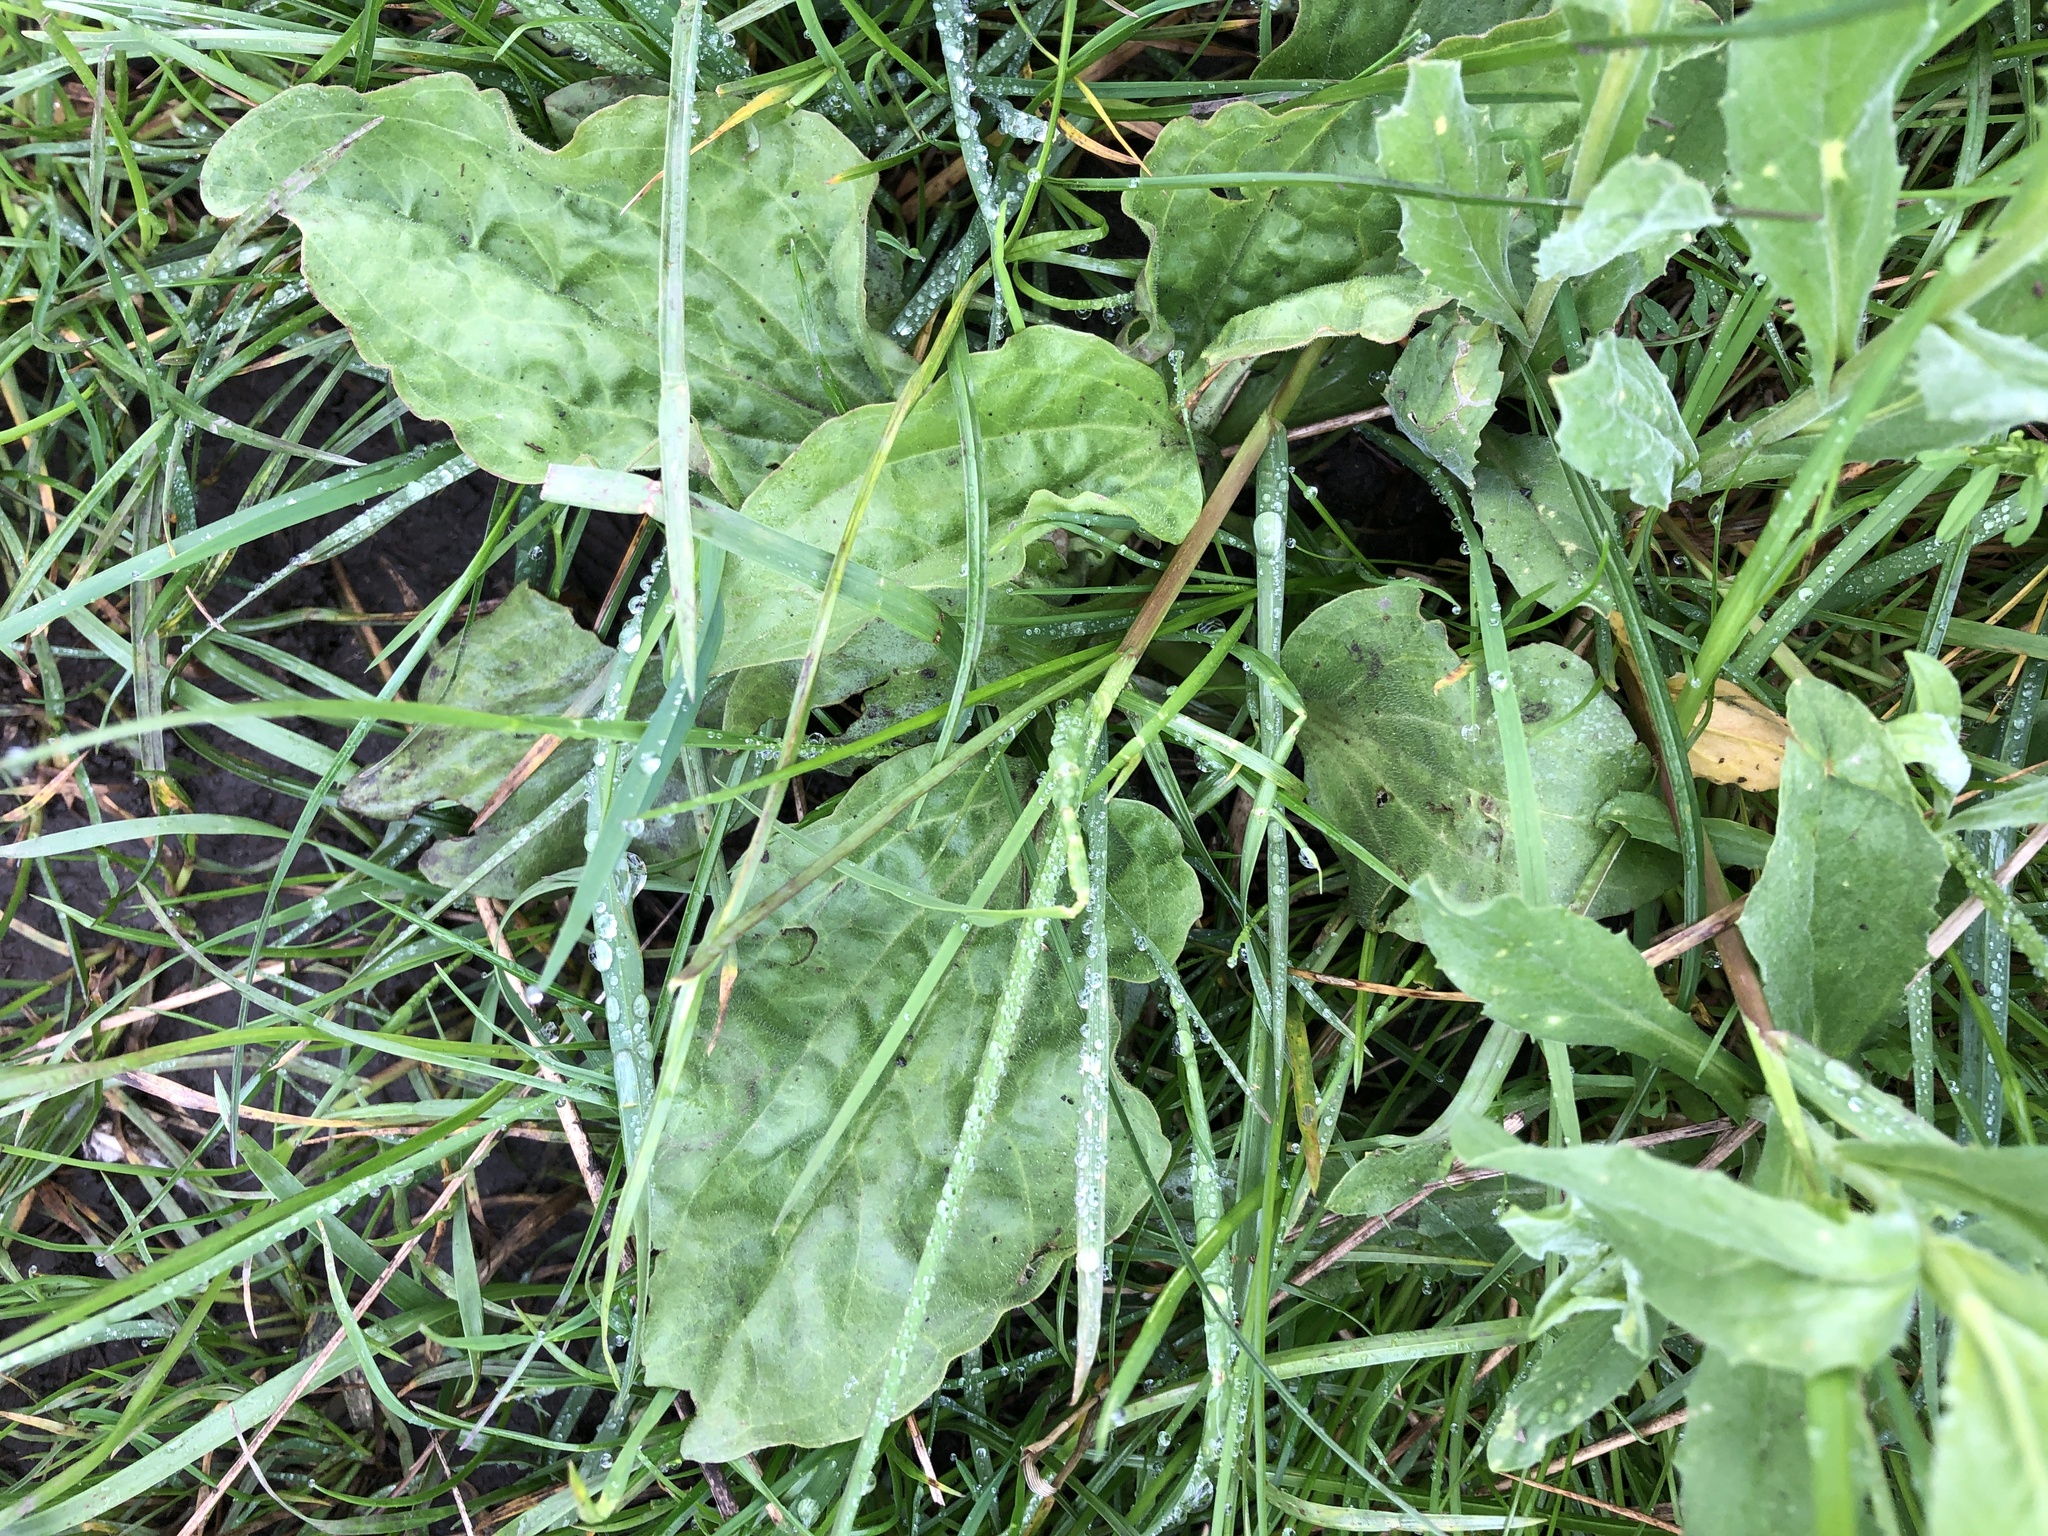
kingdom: Plantae
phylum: Tracheophyta
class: Magnoliopsida
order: Lamiales
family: Plantaginaceae
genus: Plantago
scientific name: Plantago major
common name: Common plantain
